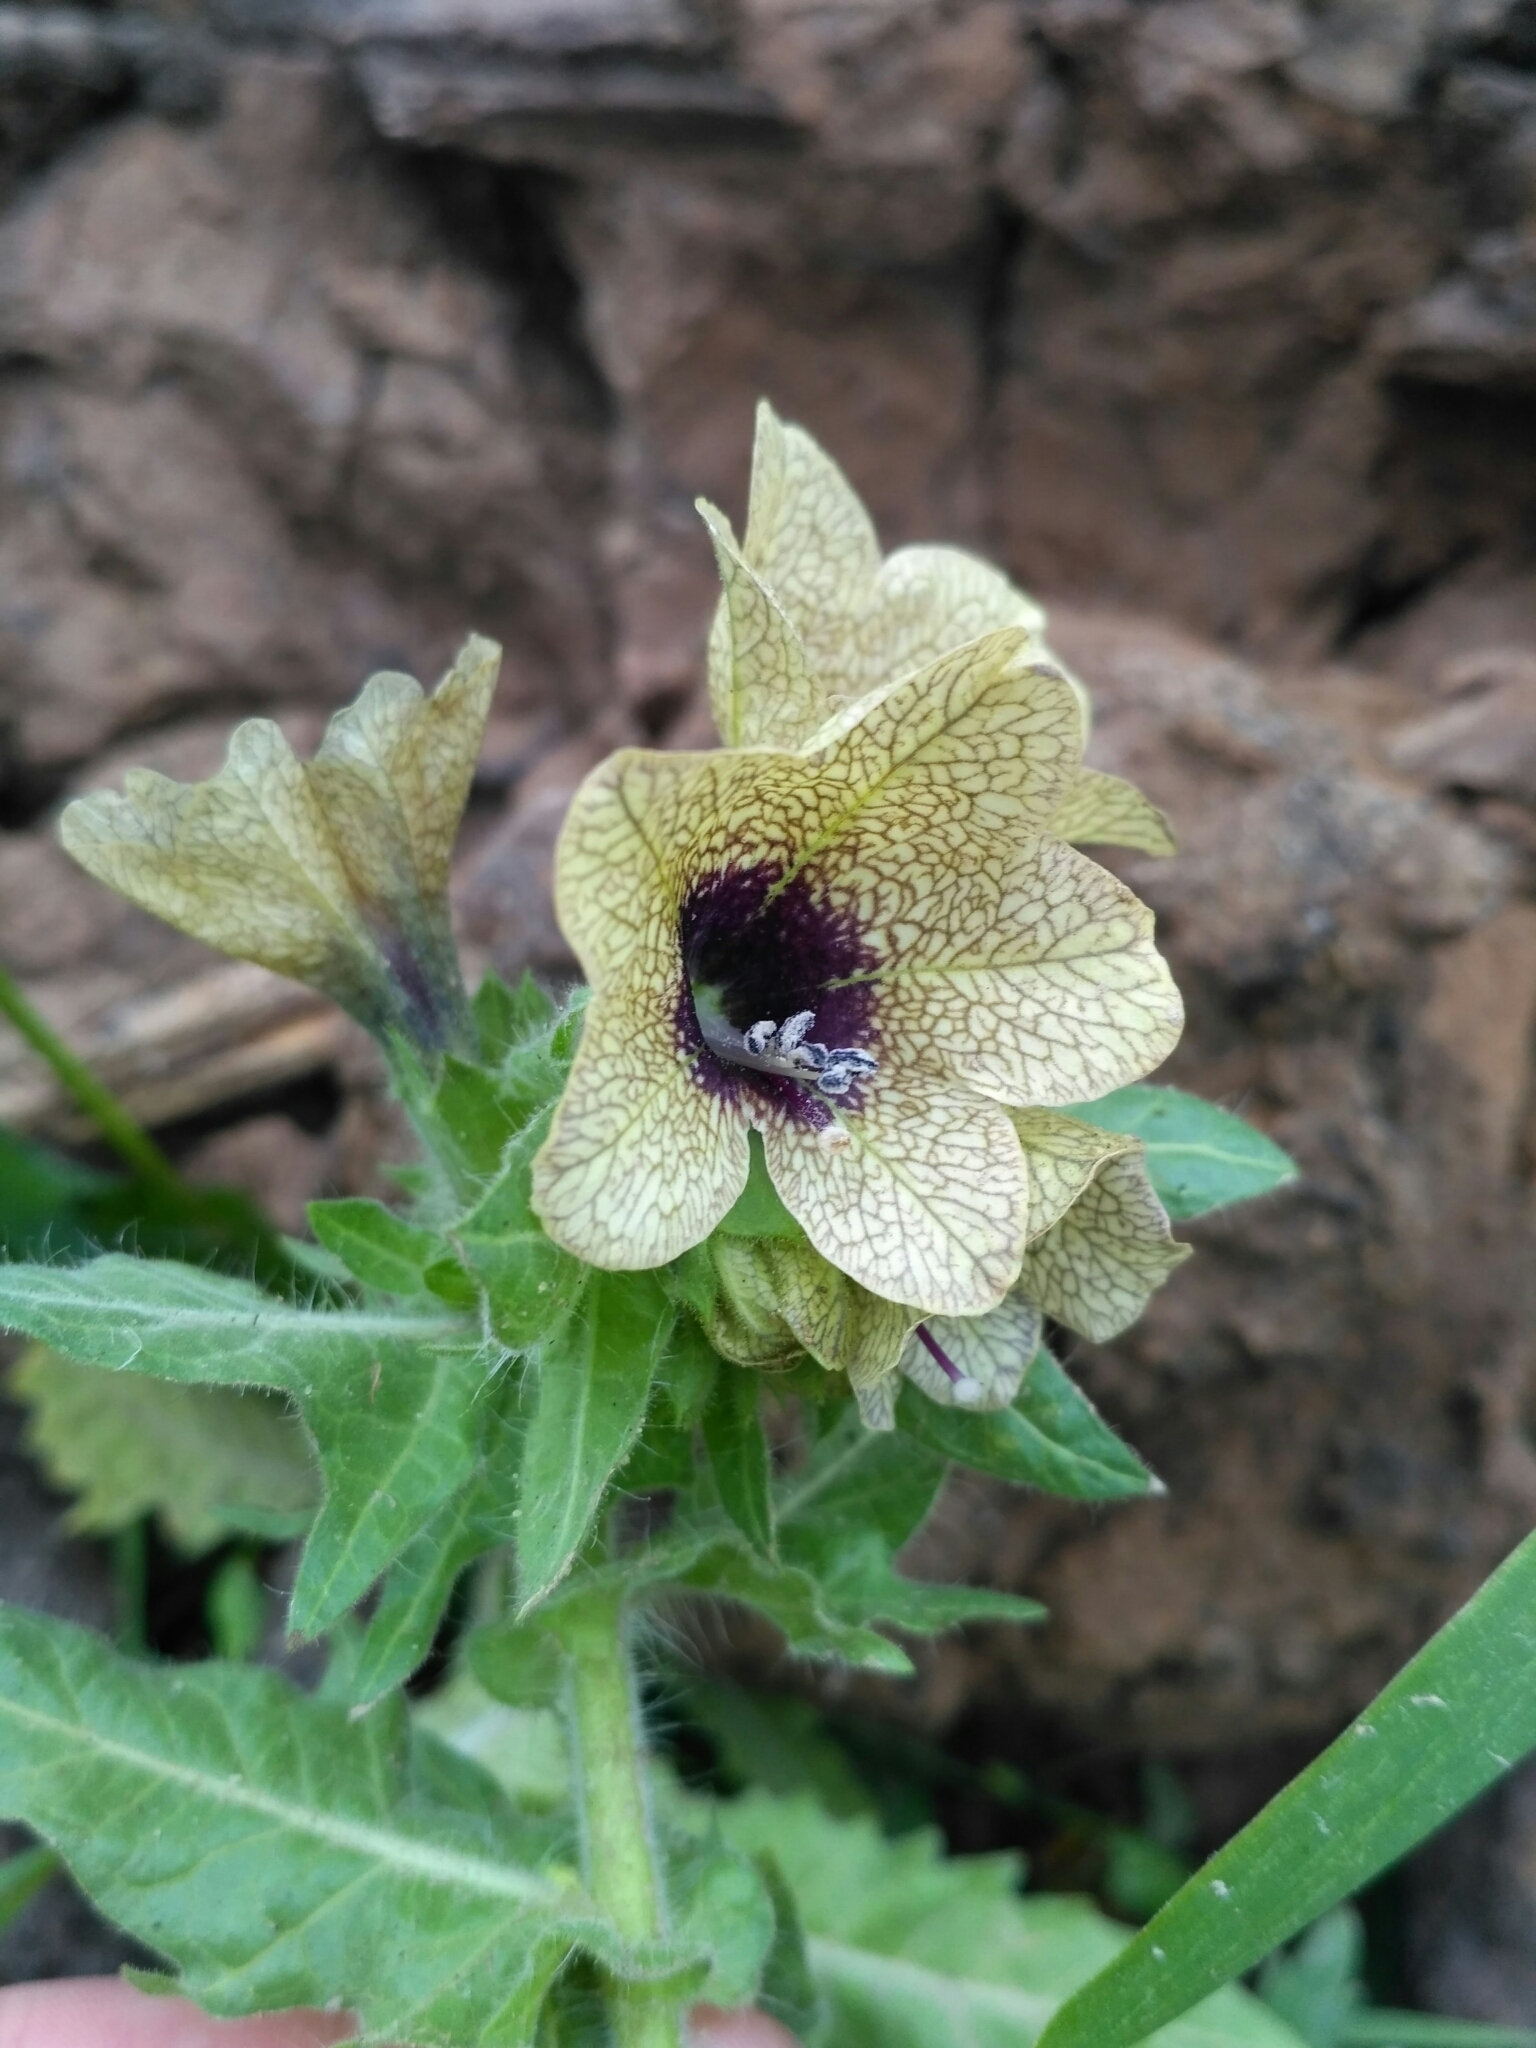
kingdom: Plantae
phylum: Tracheophyta
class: Magnoliopsida
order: Solanales
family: Solanaceae
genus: Hyoscyamus
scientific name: Hyoscyamus niger
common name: Henbane
